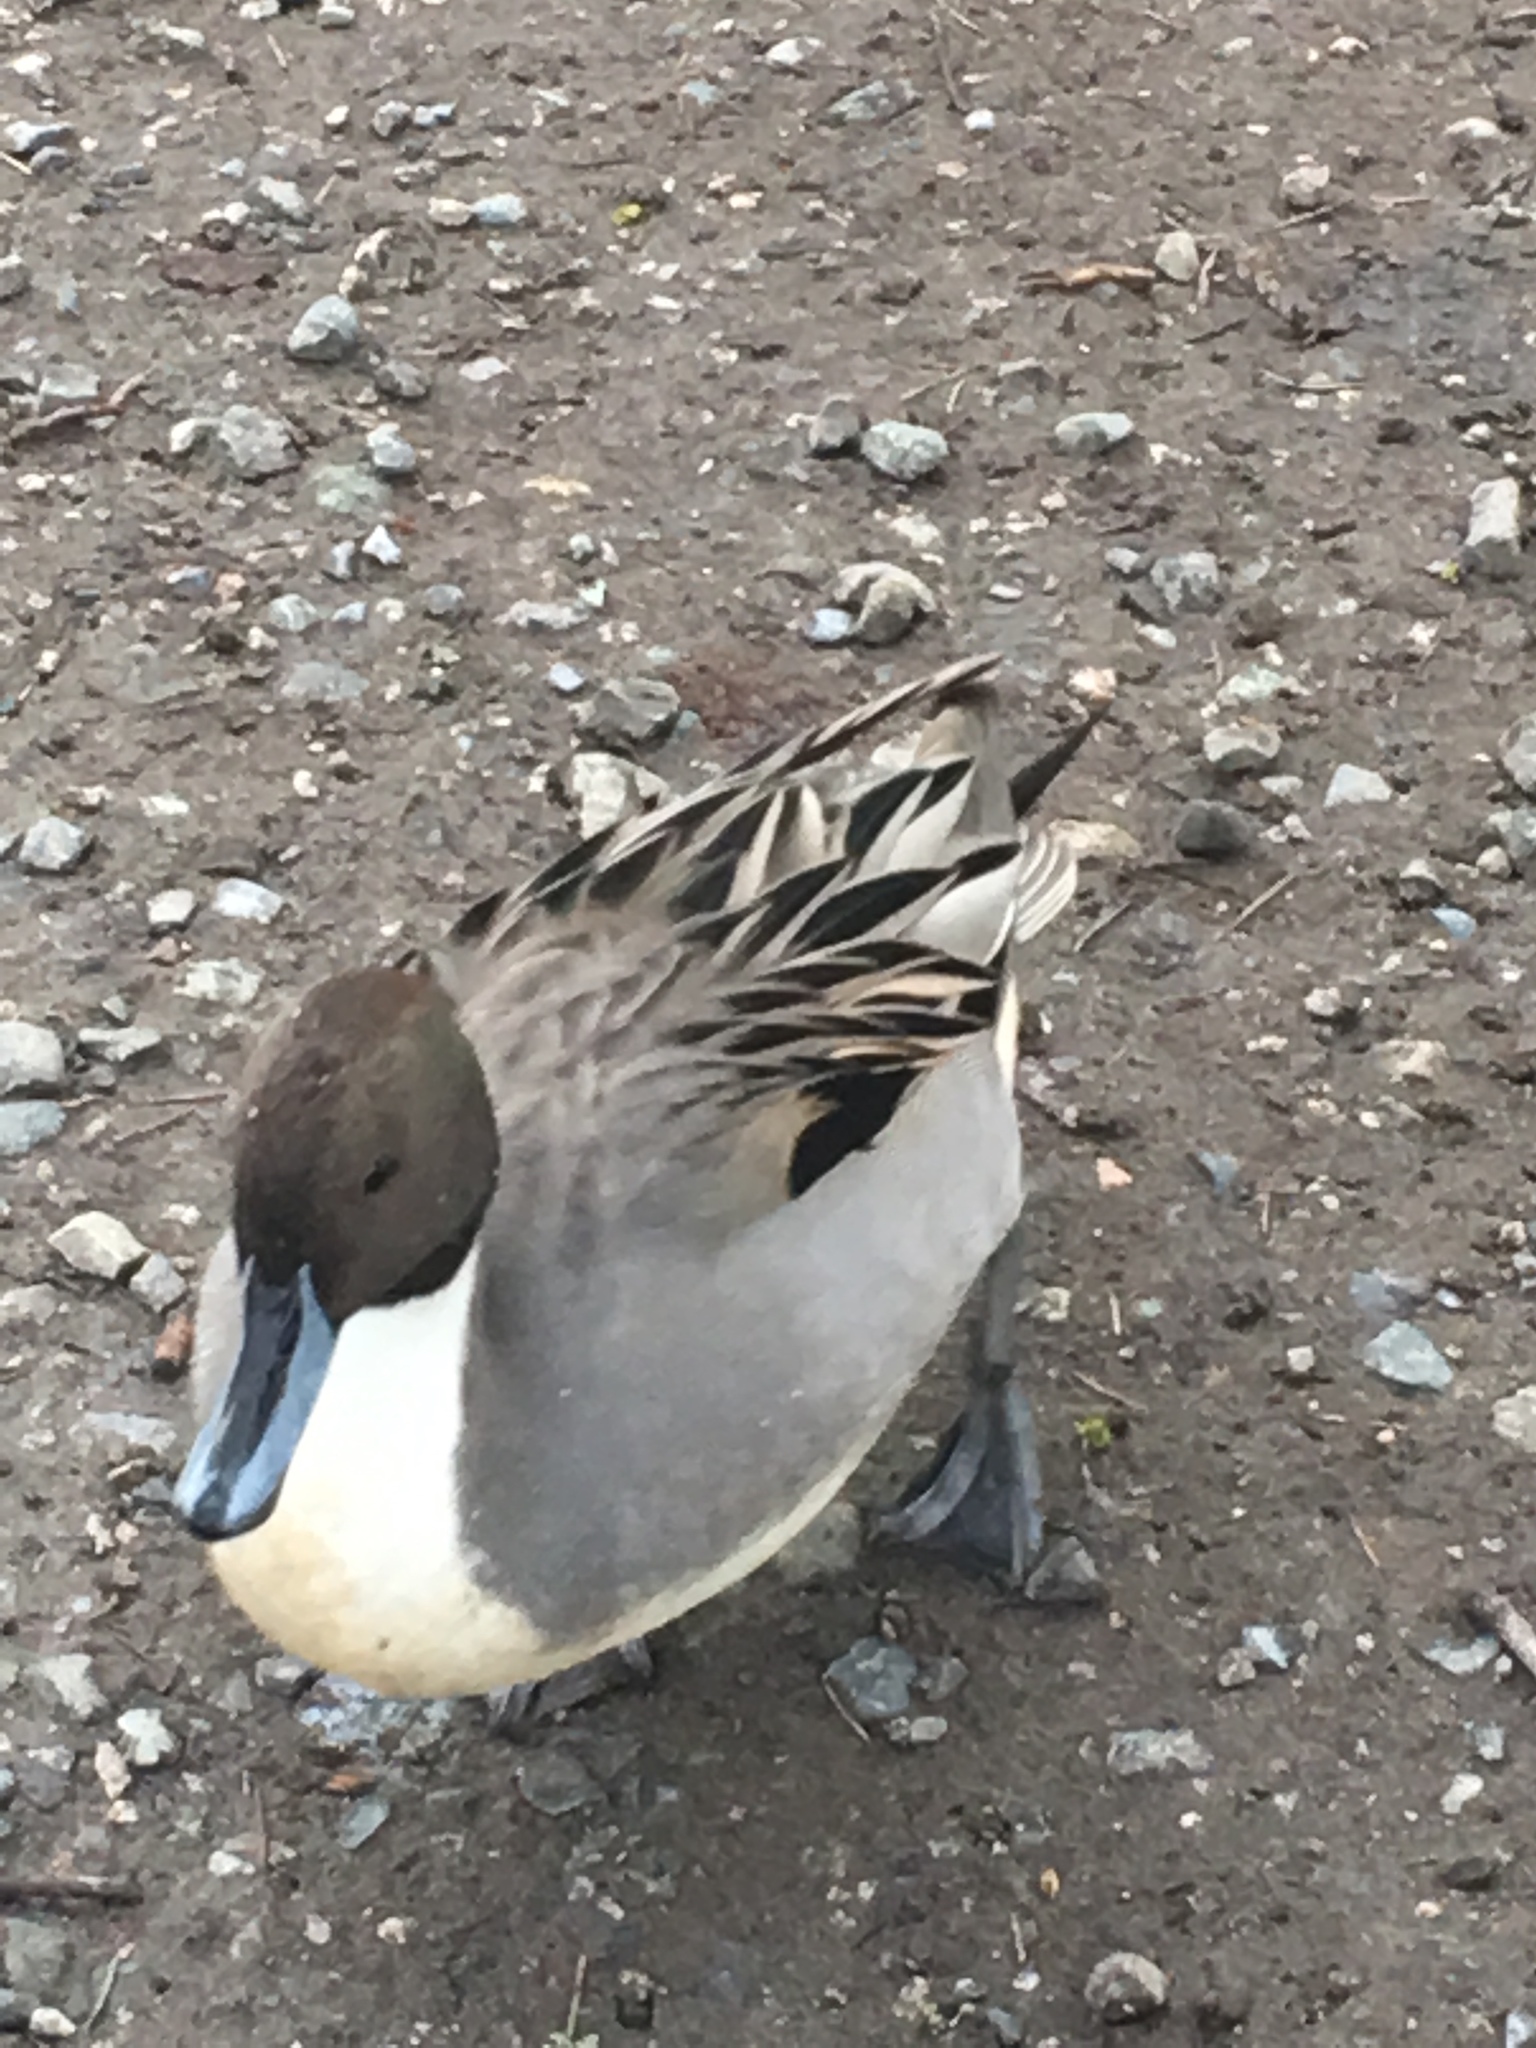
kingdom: Animalia
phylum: Chordata
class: Aves
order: Anseriformes
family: Anatidae
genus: Anas
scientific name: Anas acuta
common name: Northern pintail
